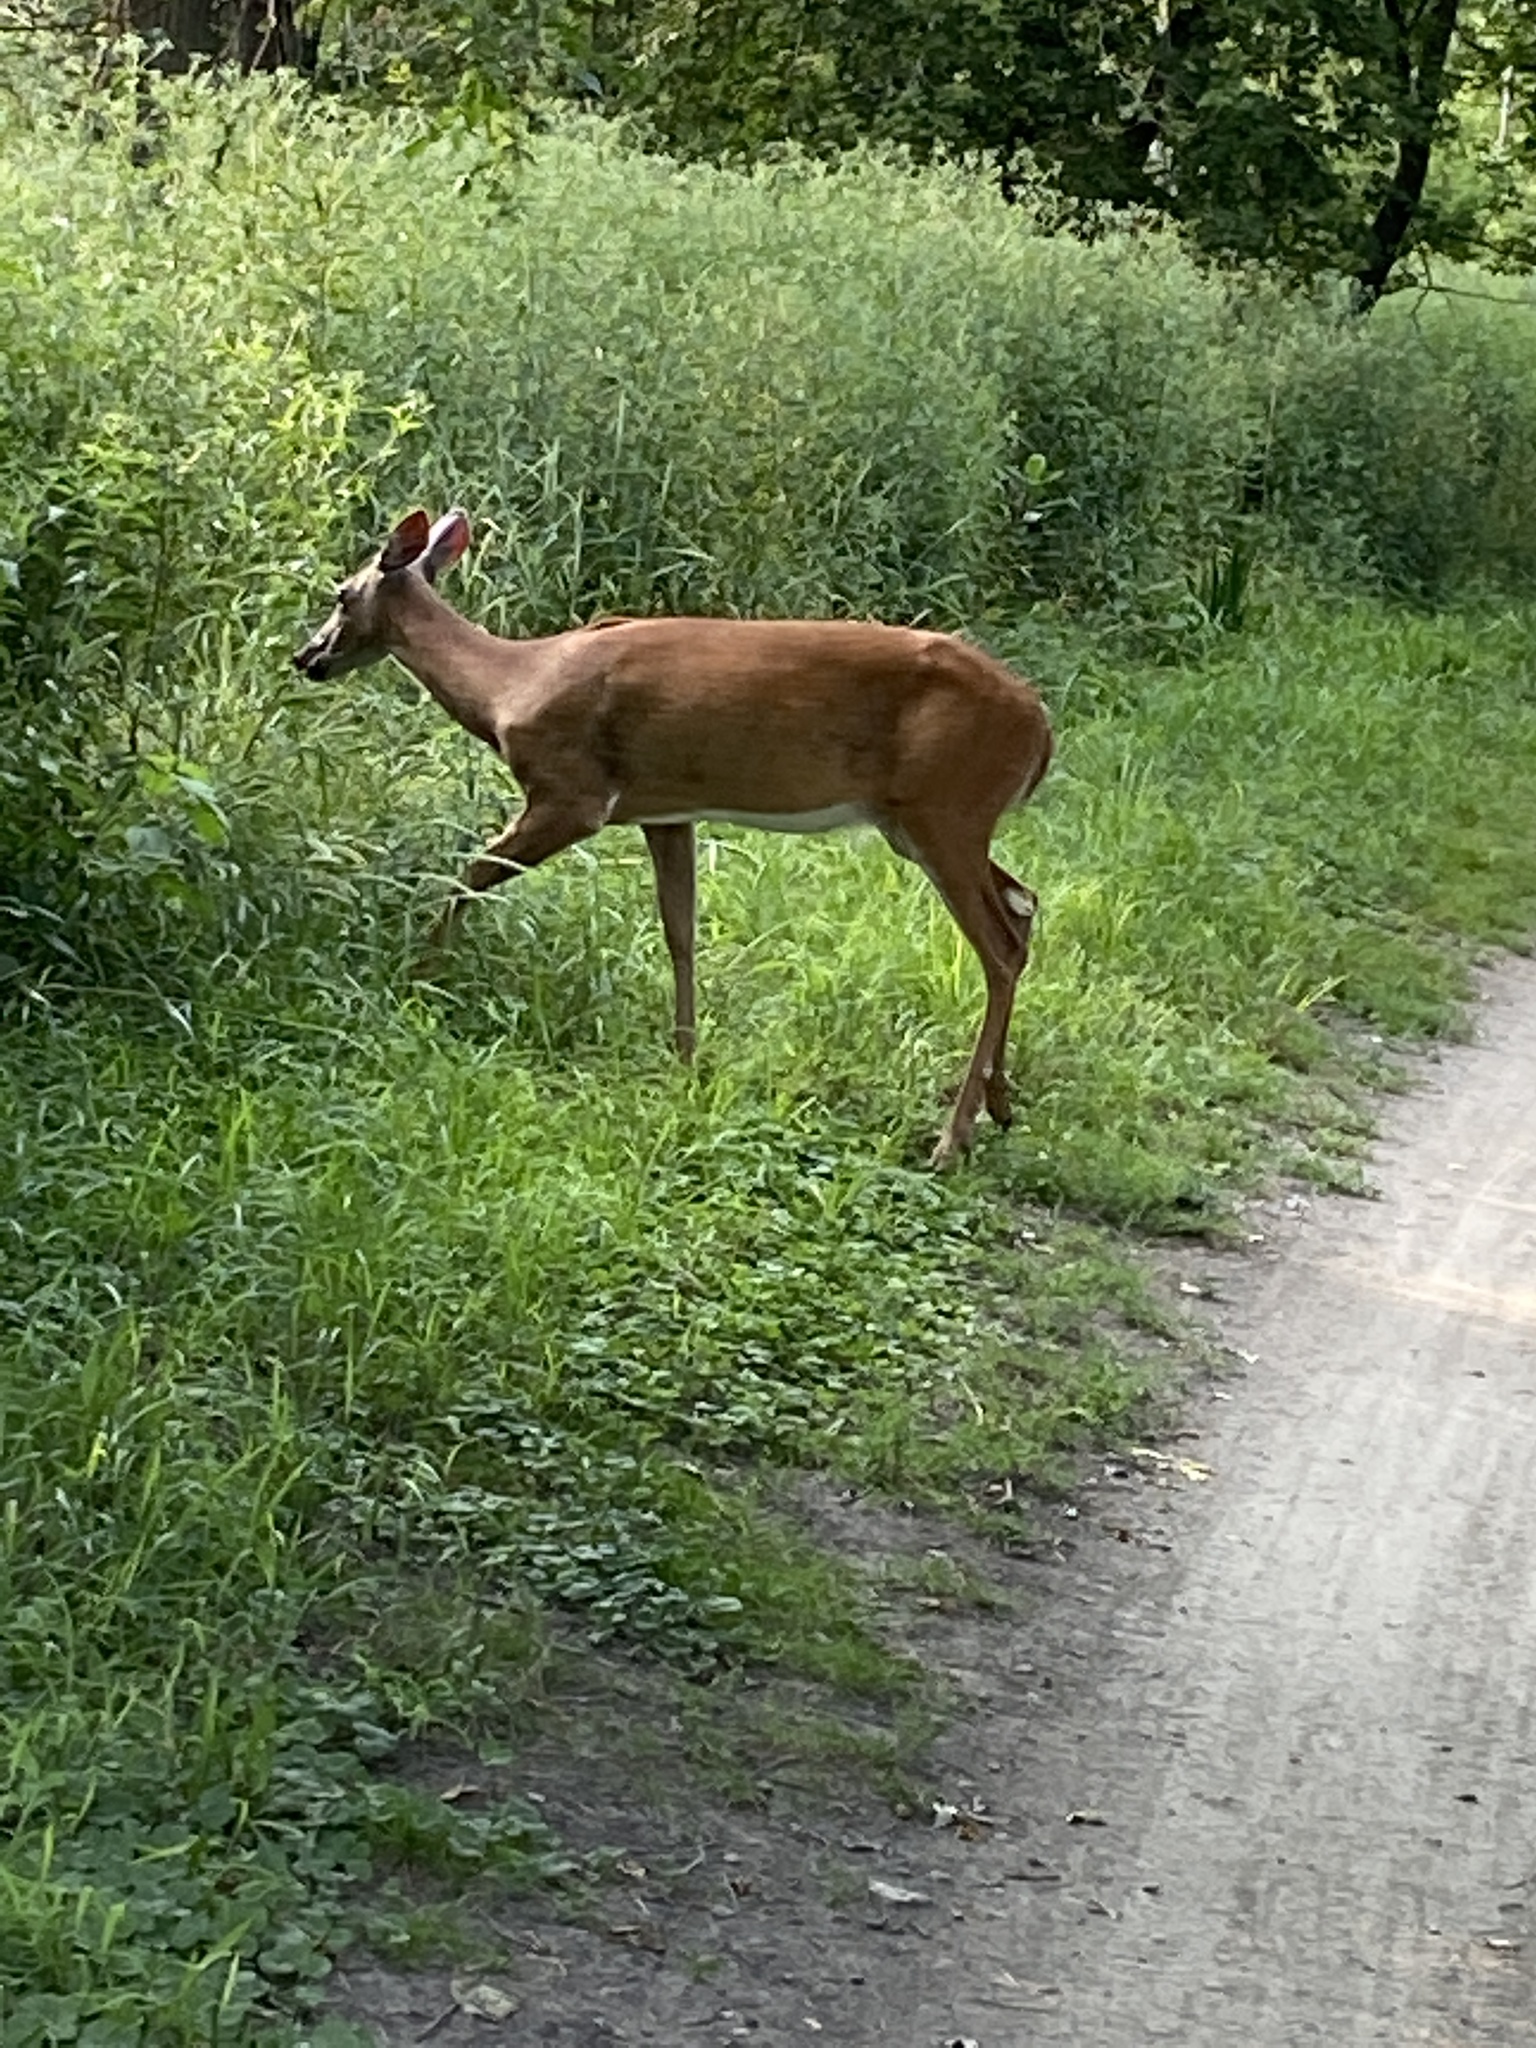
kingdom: Animalia
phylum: Chordata
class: Mammalia
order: Artiodactyla
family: Cervidae
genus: Odocoileus
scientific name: Odocoileus virginianus
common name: White-tailed deer
